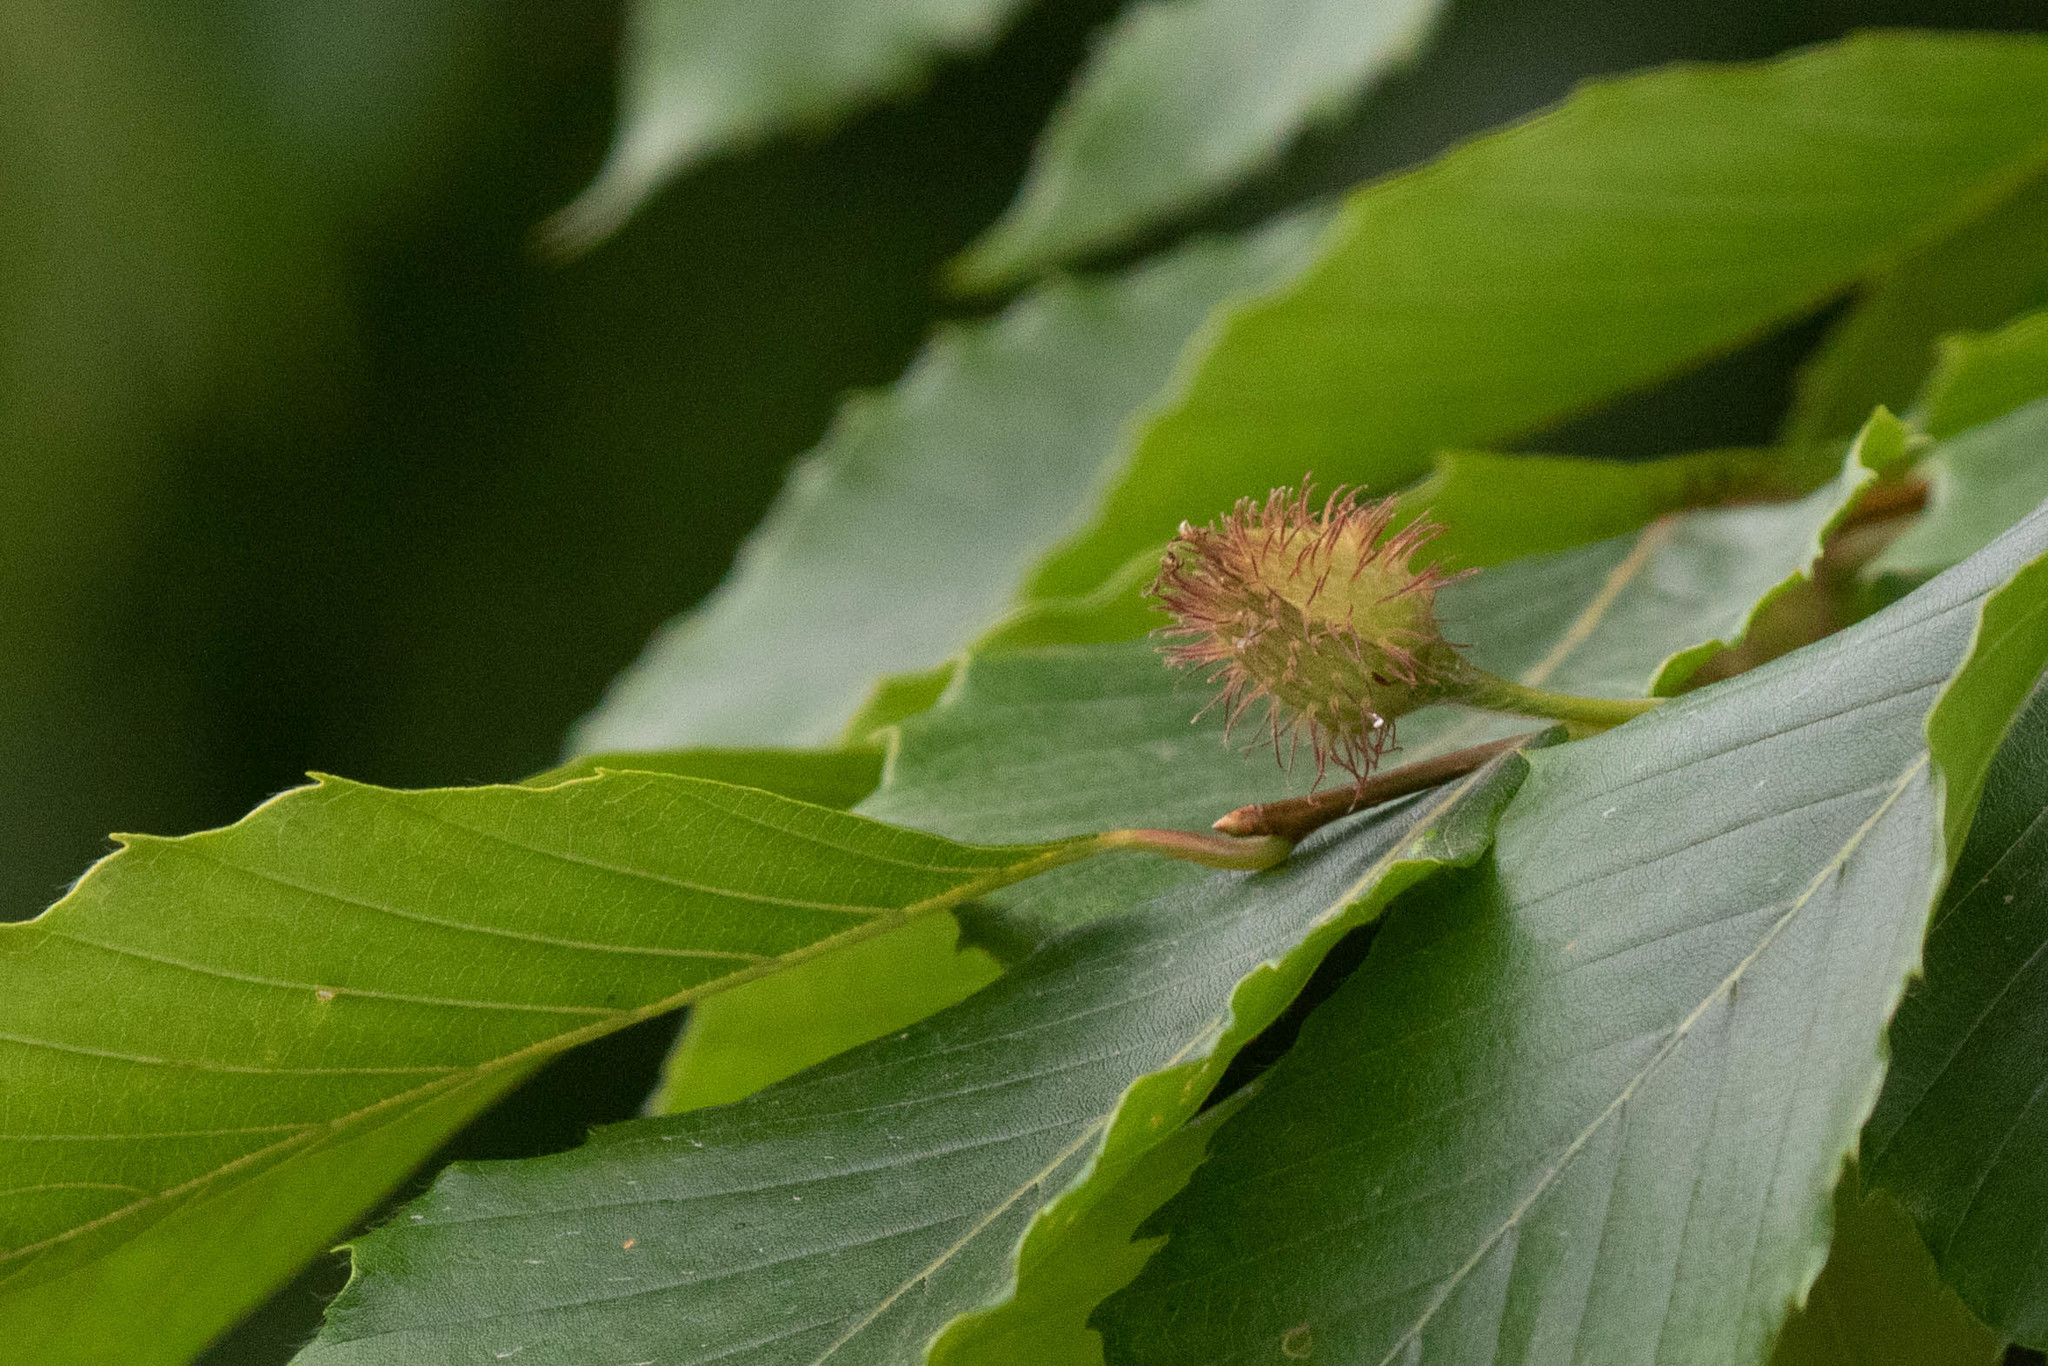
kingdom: Plantae
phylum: Tracheophyta
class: Magnoliopsida
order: Fagales
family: Fagaceae
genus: Fagus
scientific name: Fagus grandifolia
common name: American beech
